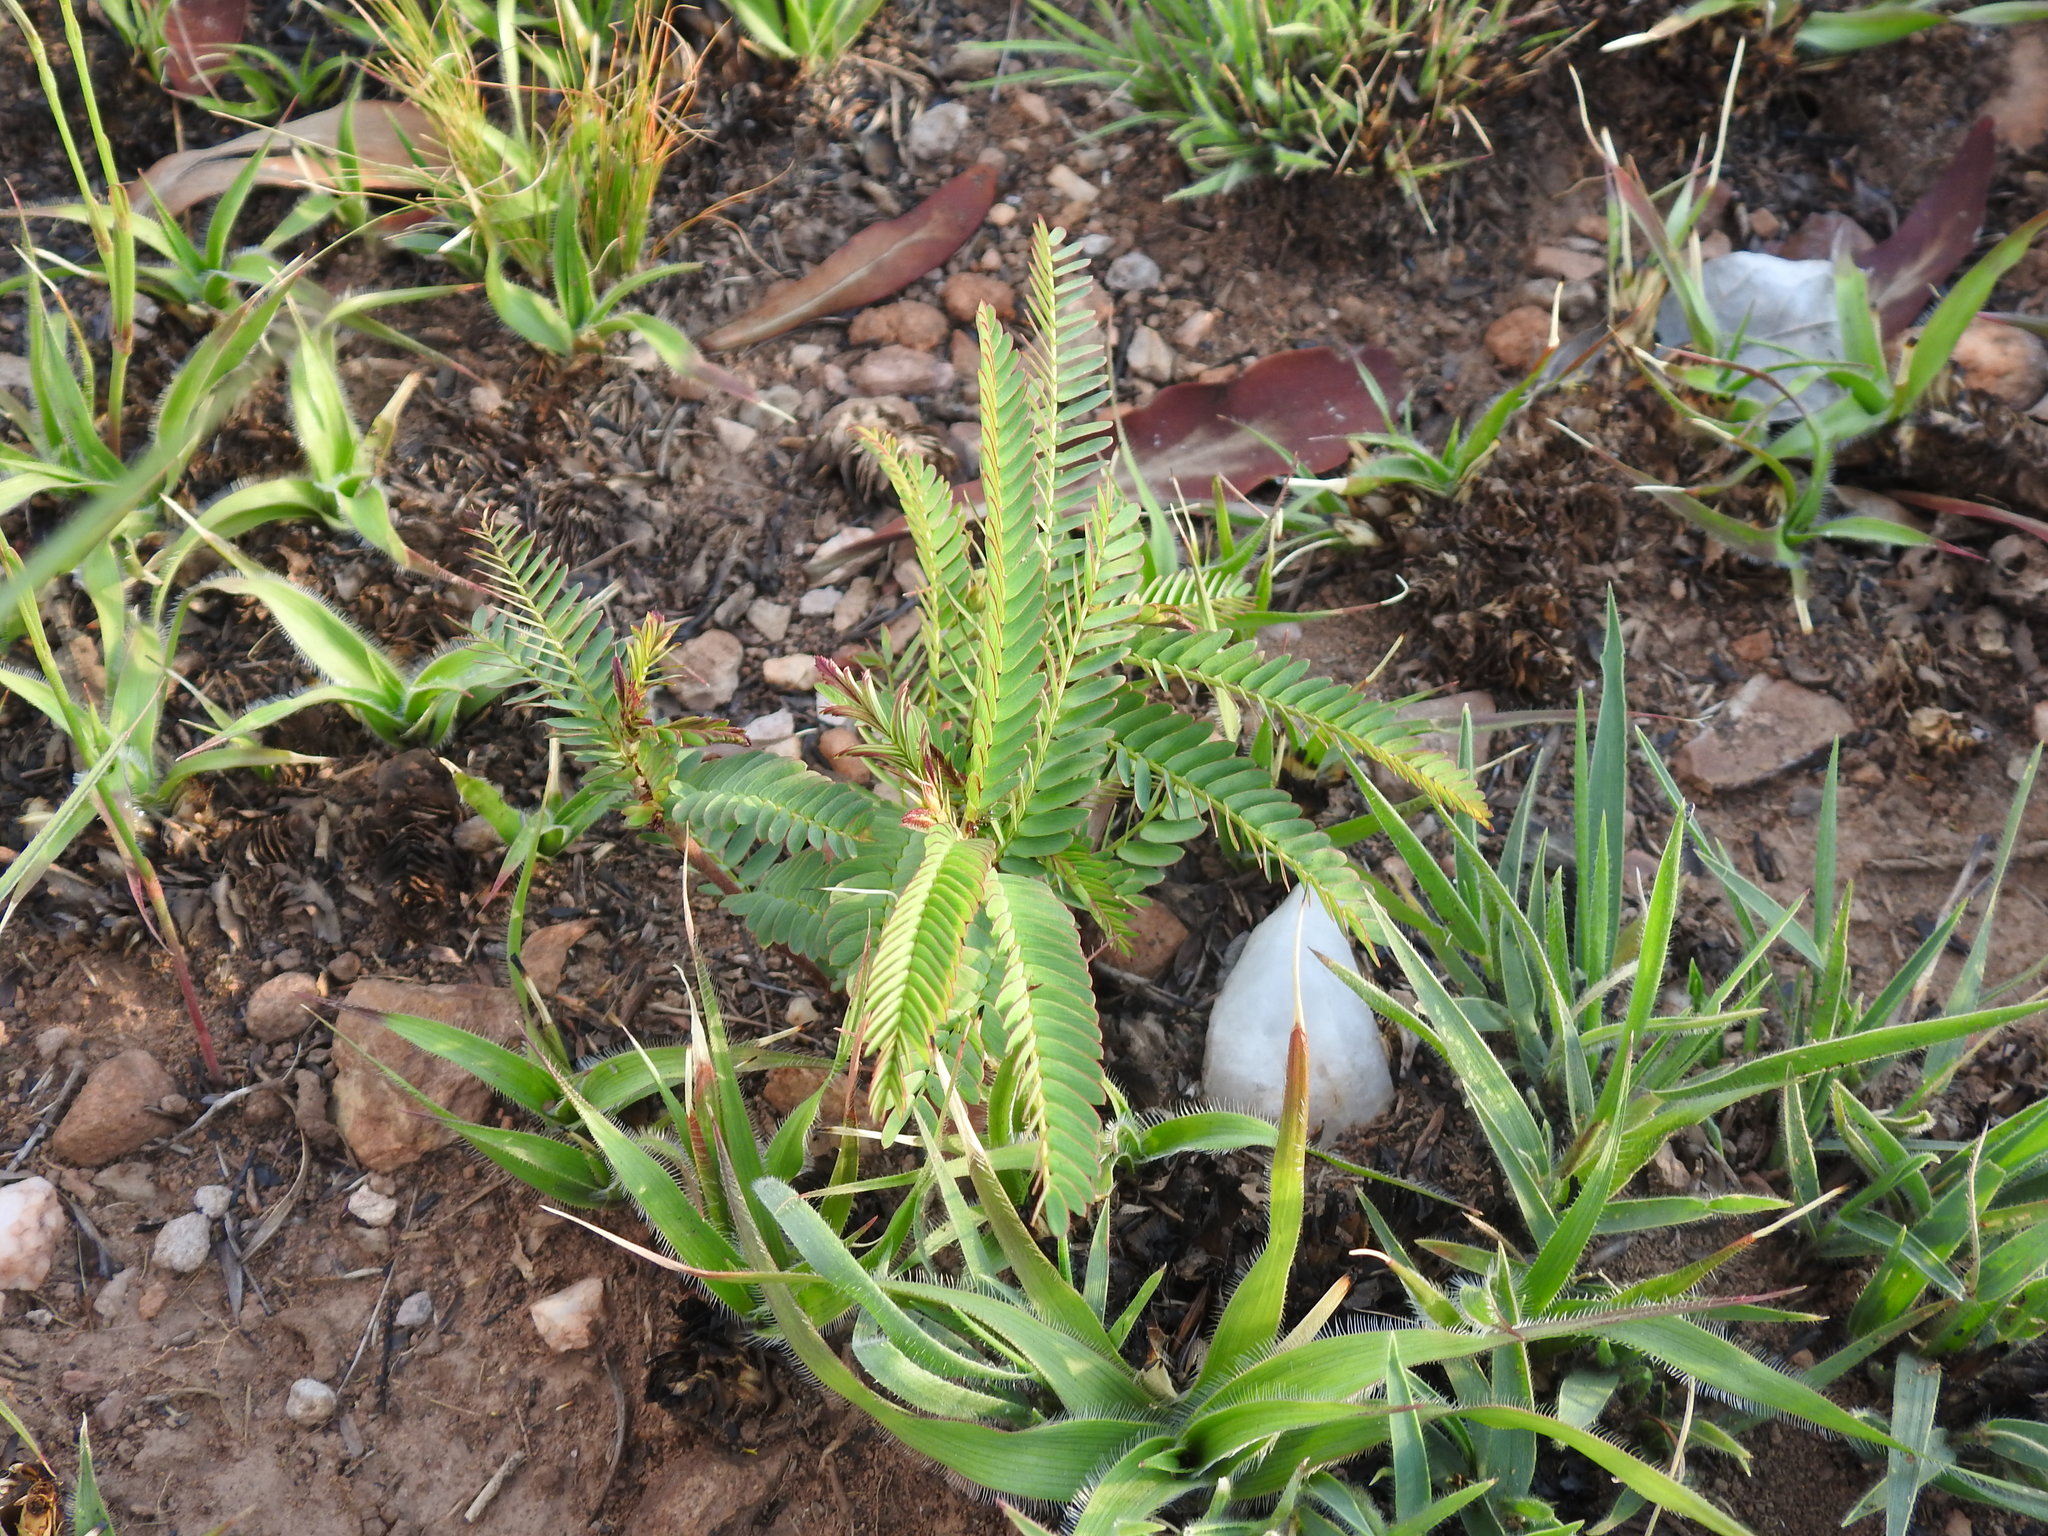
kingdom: Plantae
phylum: Tracheophyta
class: Magnoliopsida
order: Fabales
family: Fabaceae
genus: Chamaecrista
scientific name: Chamaecrista mimosoides
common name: Fish-bone cassia
